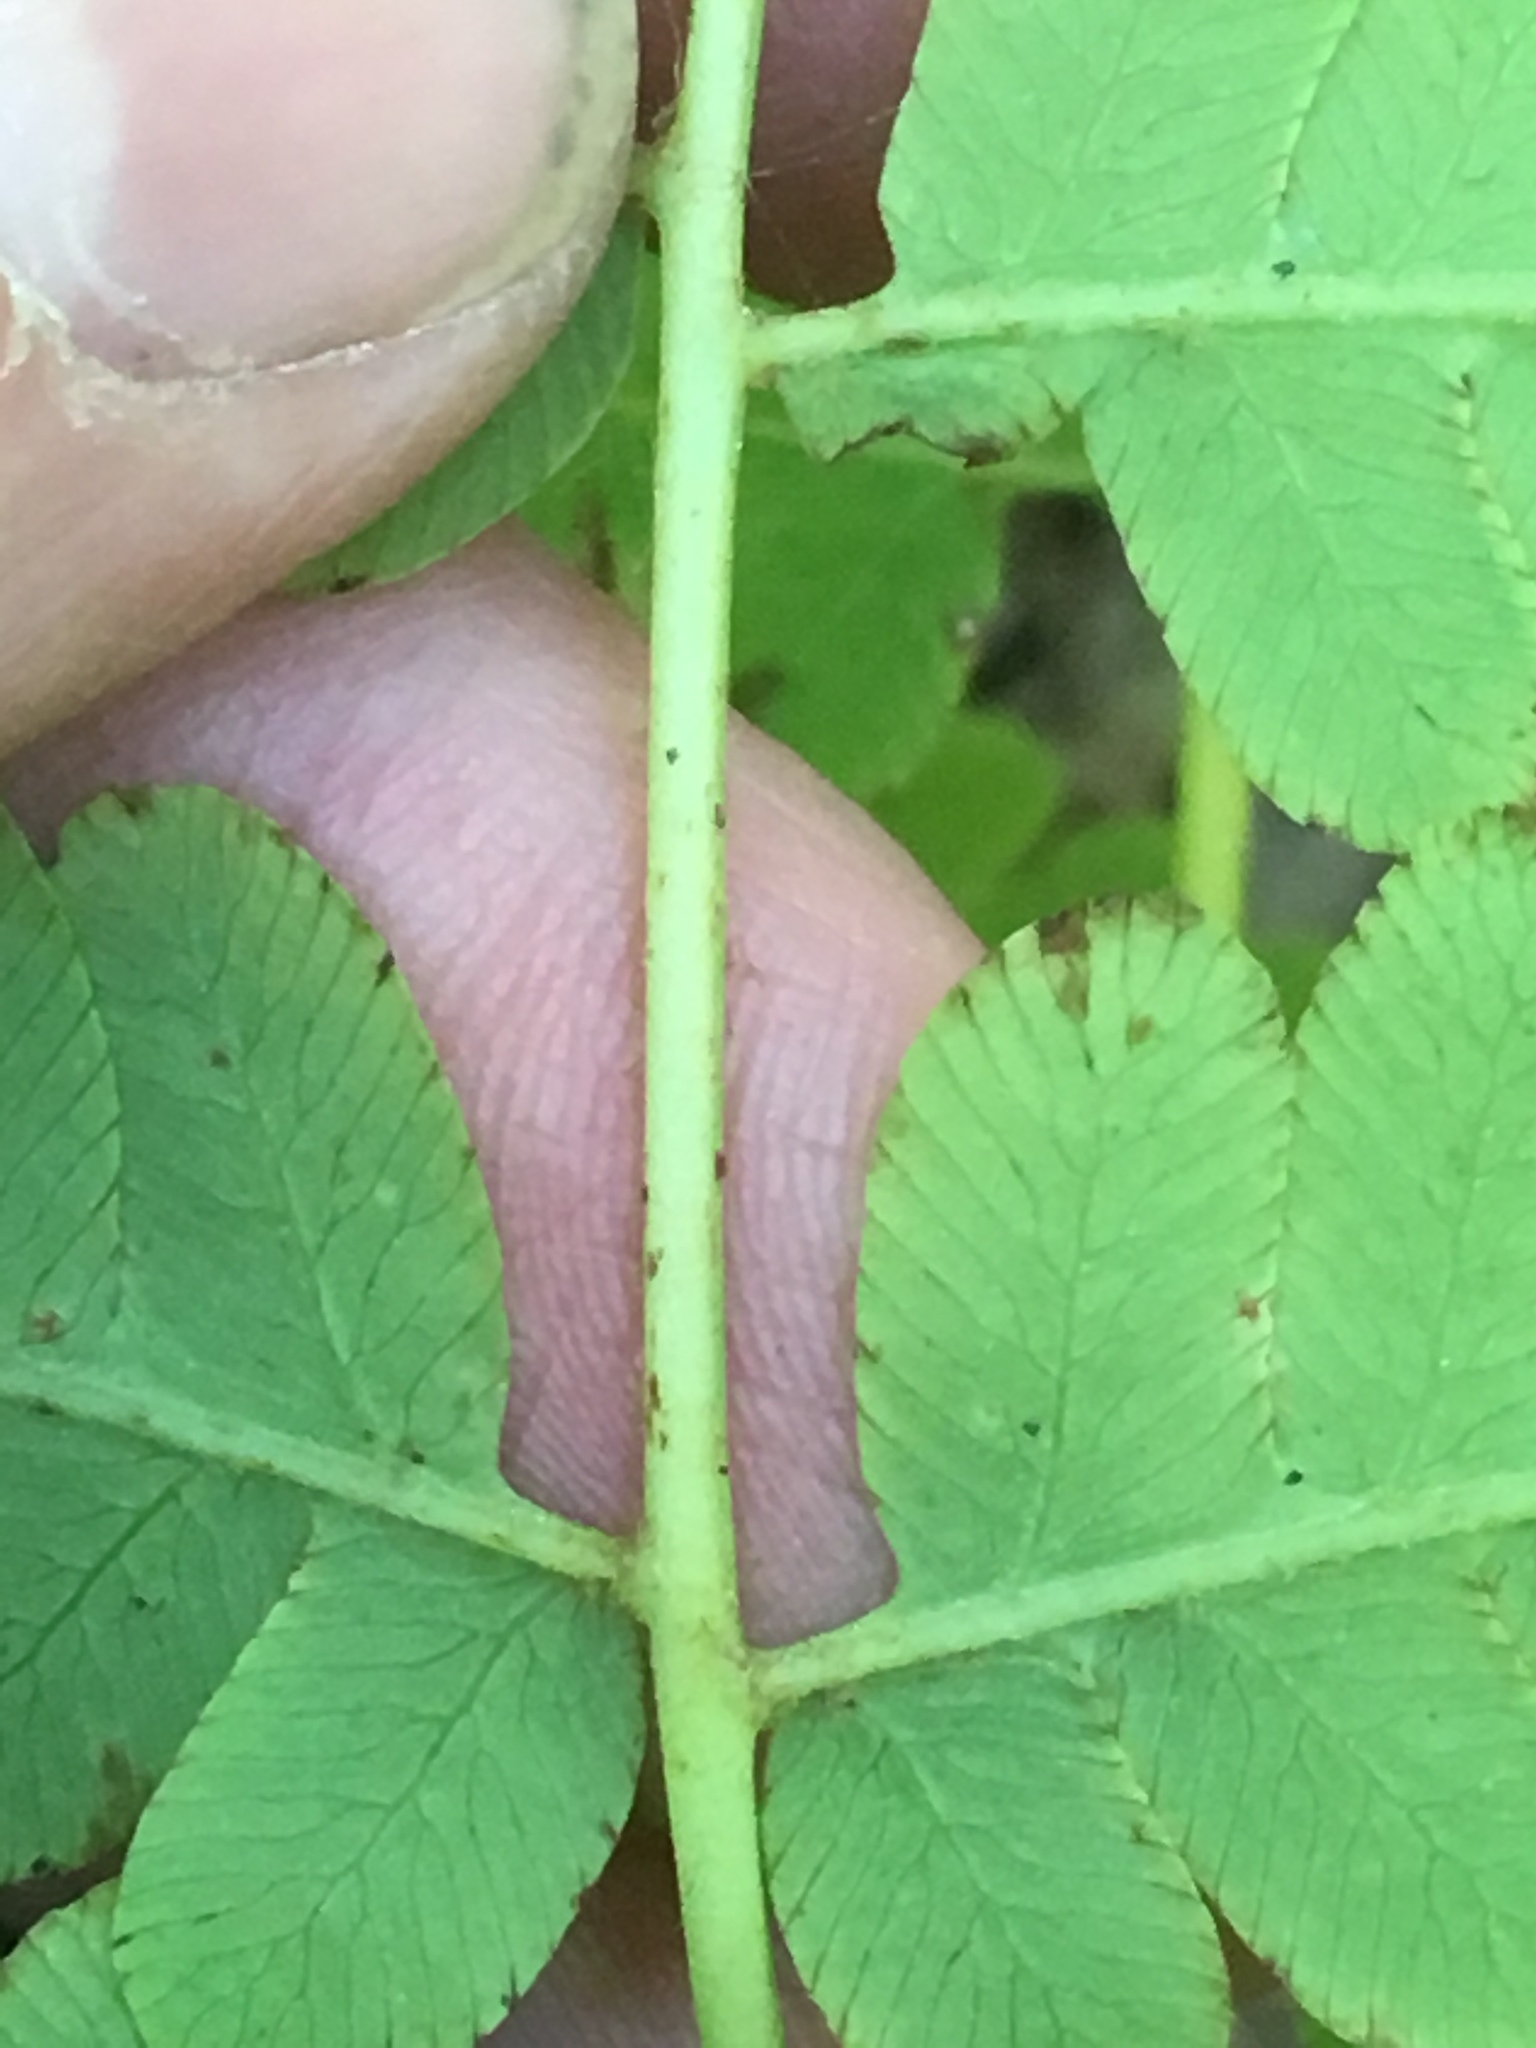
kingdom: Plantae
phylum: Tracheophyta
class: Polypodiopsida
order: Osmundales
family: Osmundaceae
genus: Claytosmunda
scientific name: Claytosmunda claytoniana
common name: Clayton's fern
